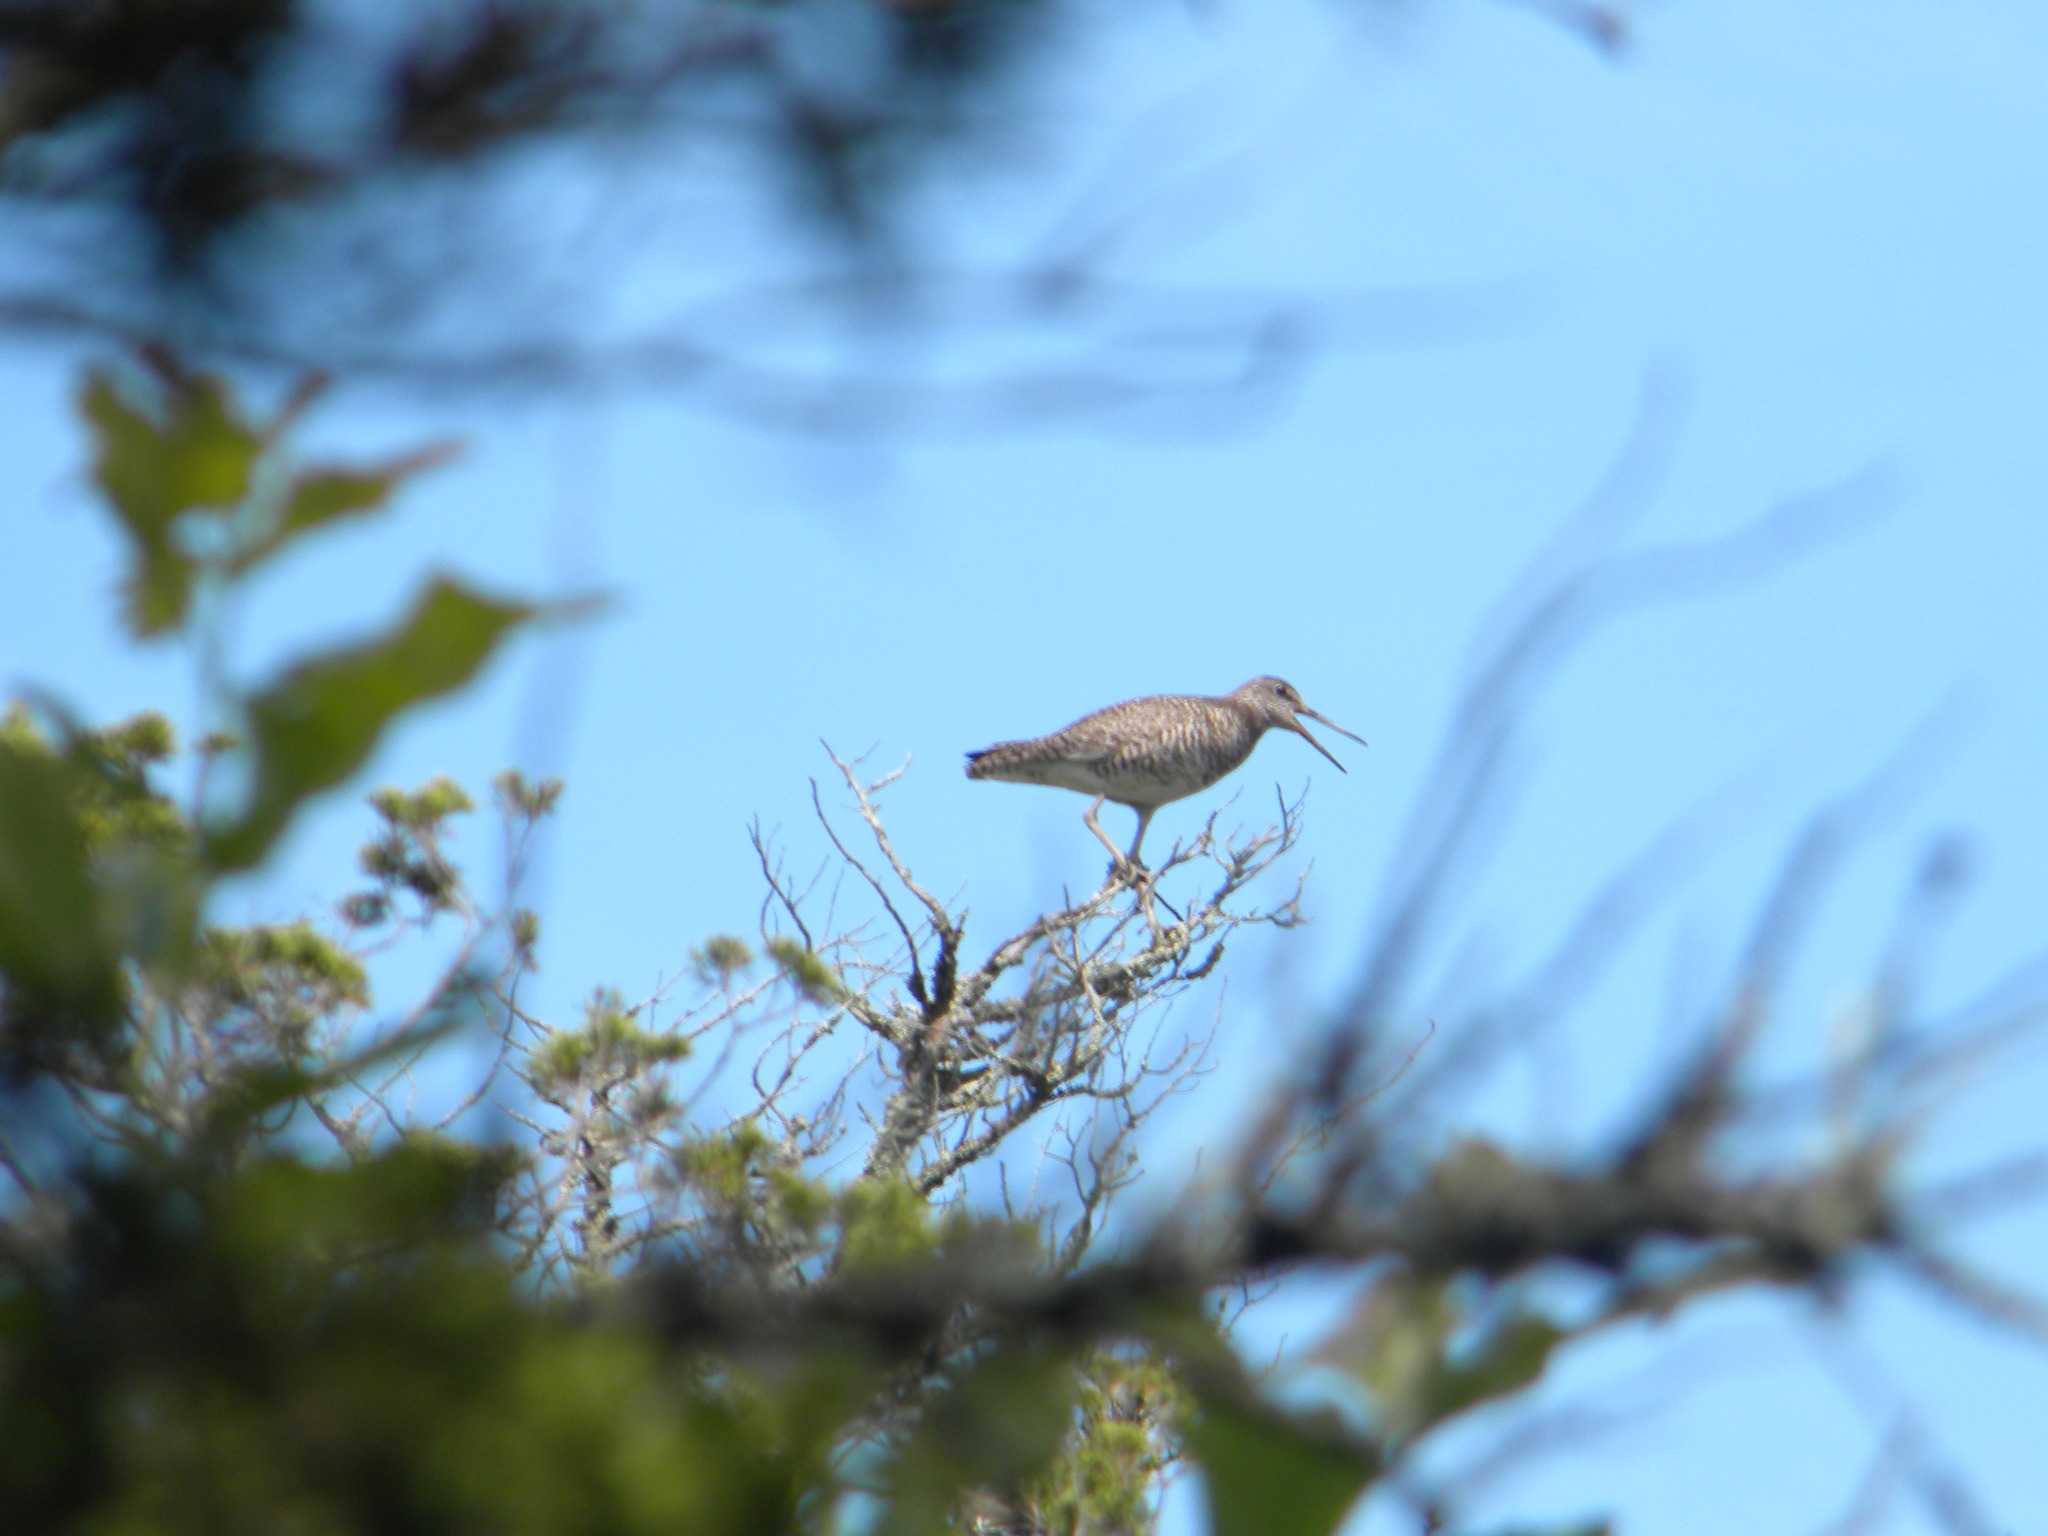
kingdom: Animalia
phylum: Chordata
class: Aves
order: Charadriiformes
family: Scolopacidae
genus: Tringa
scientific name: Tringa semipalmata
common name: Willet
